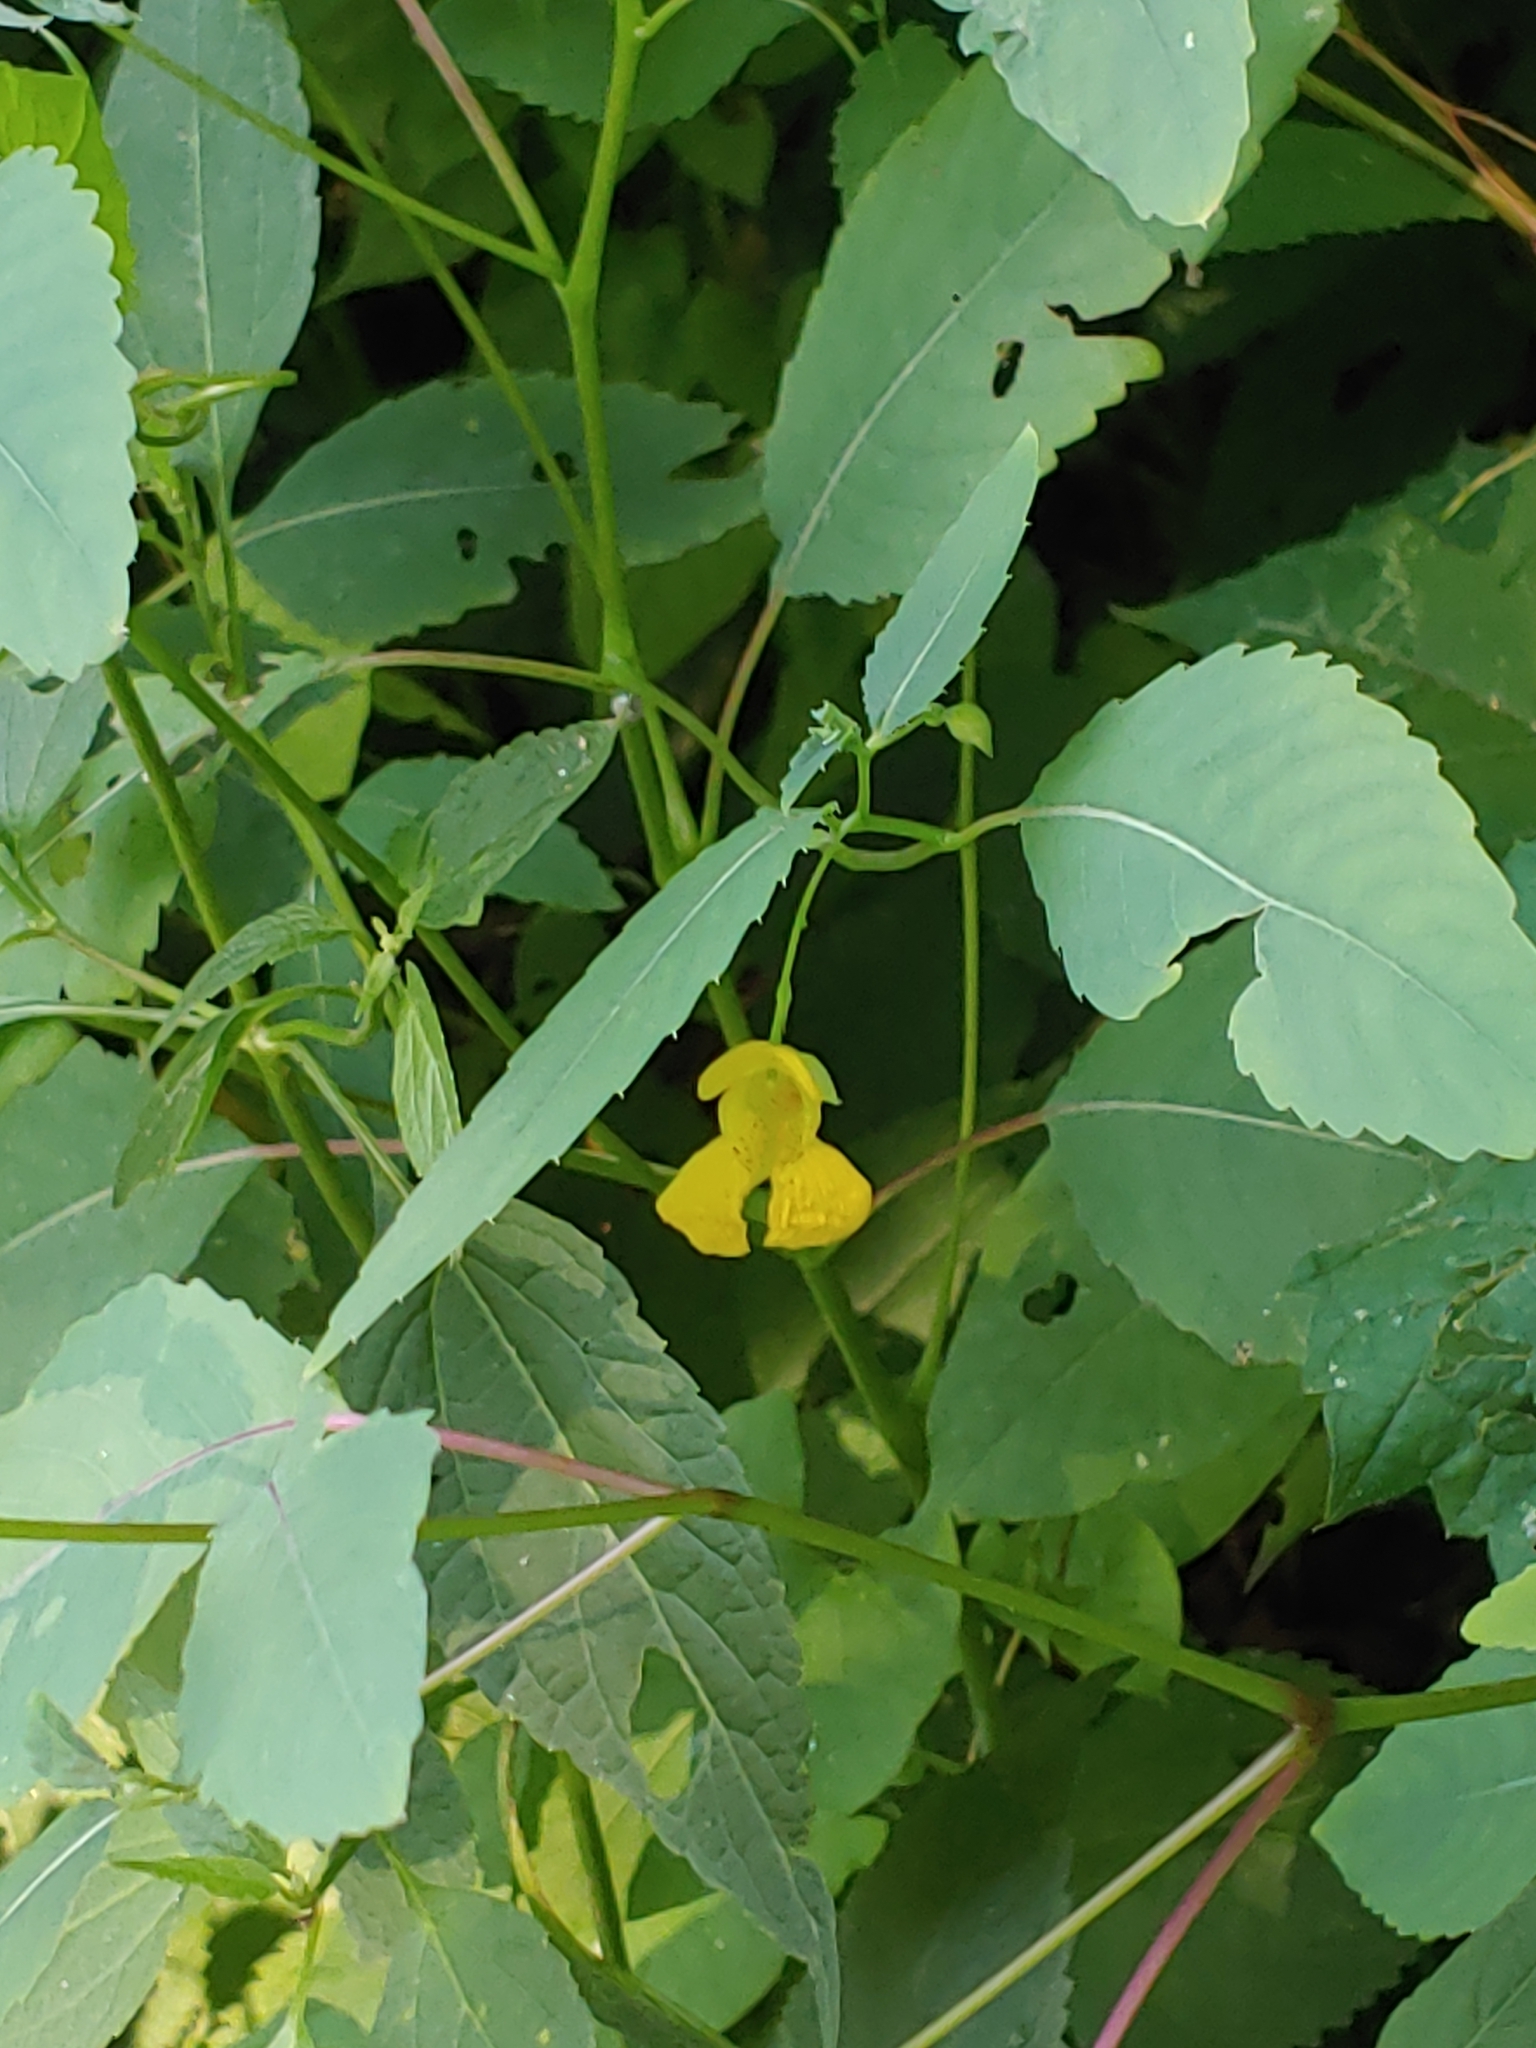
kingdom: Plantae
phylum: Tracheophyta
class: Magnoliopsida
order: Ericales
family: Balsaminaceae
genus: Impatiens
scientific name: Impatiens pallida
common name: Pale snapweed
